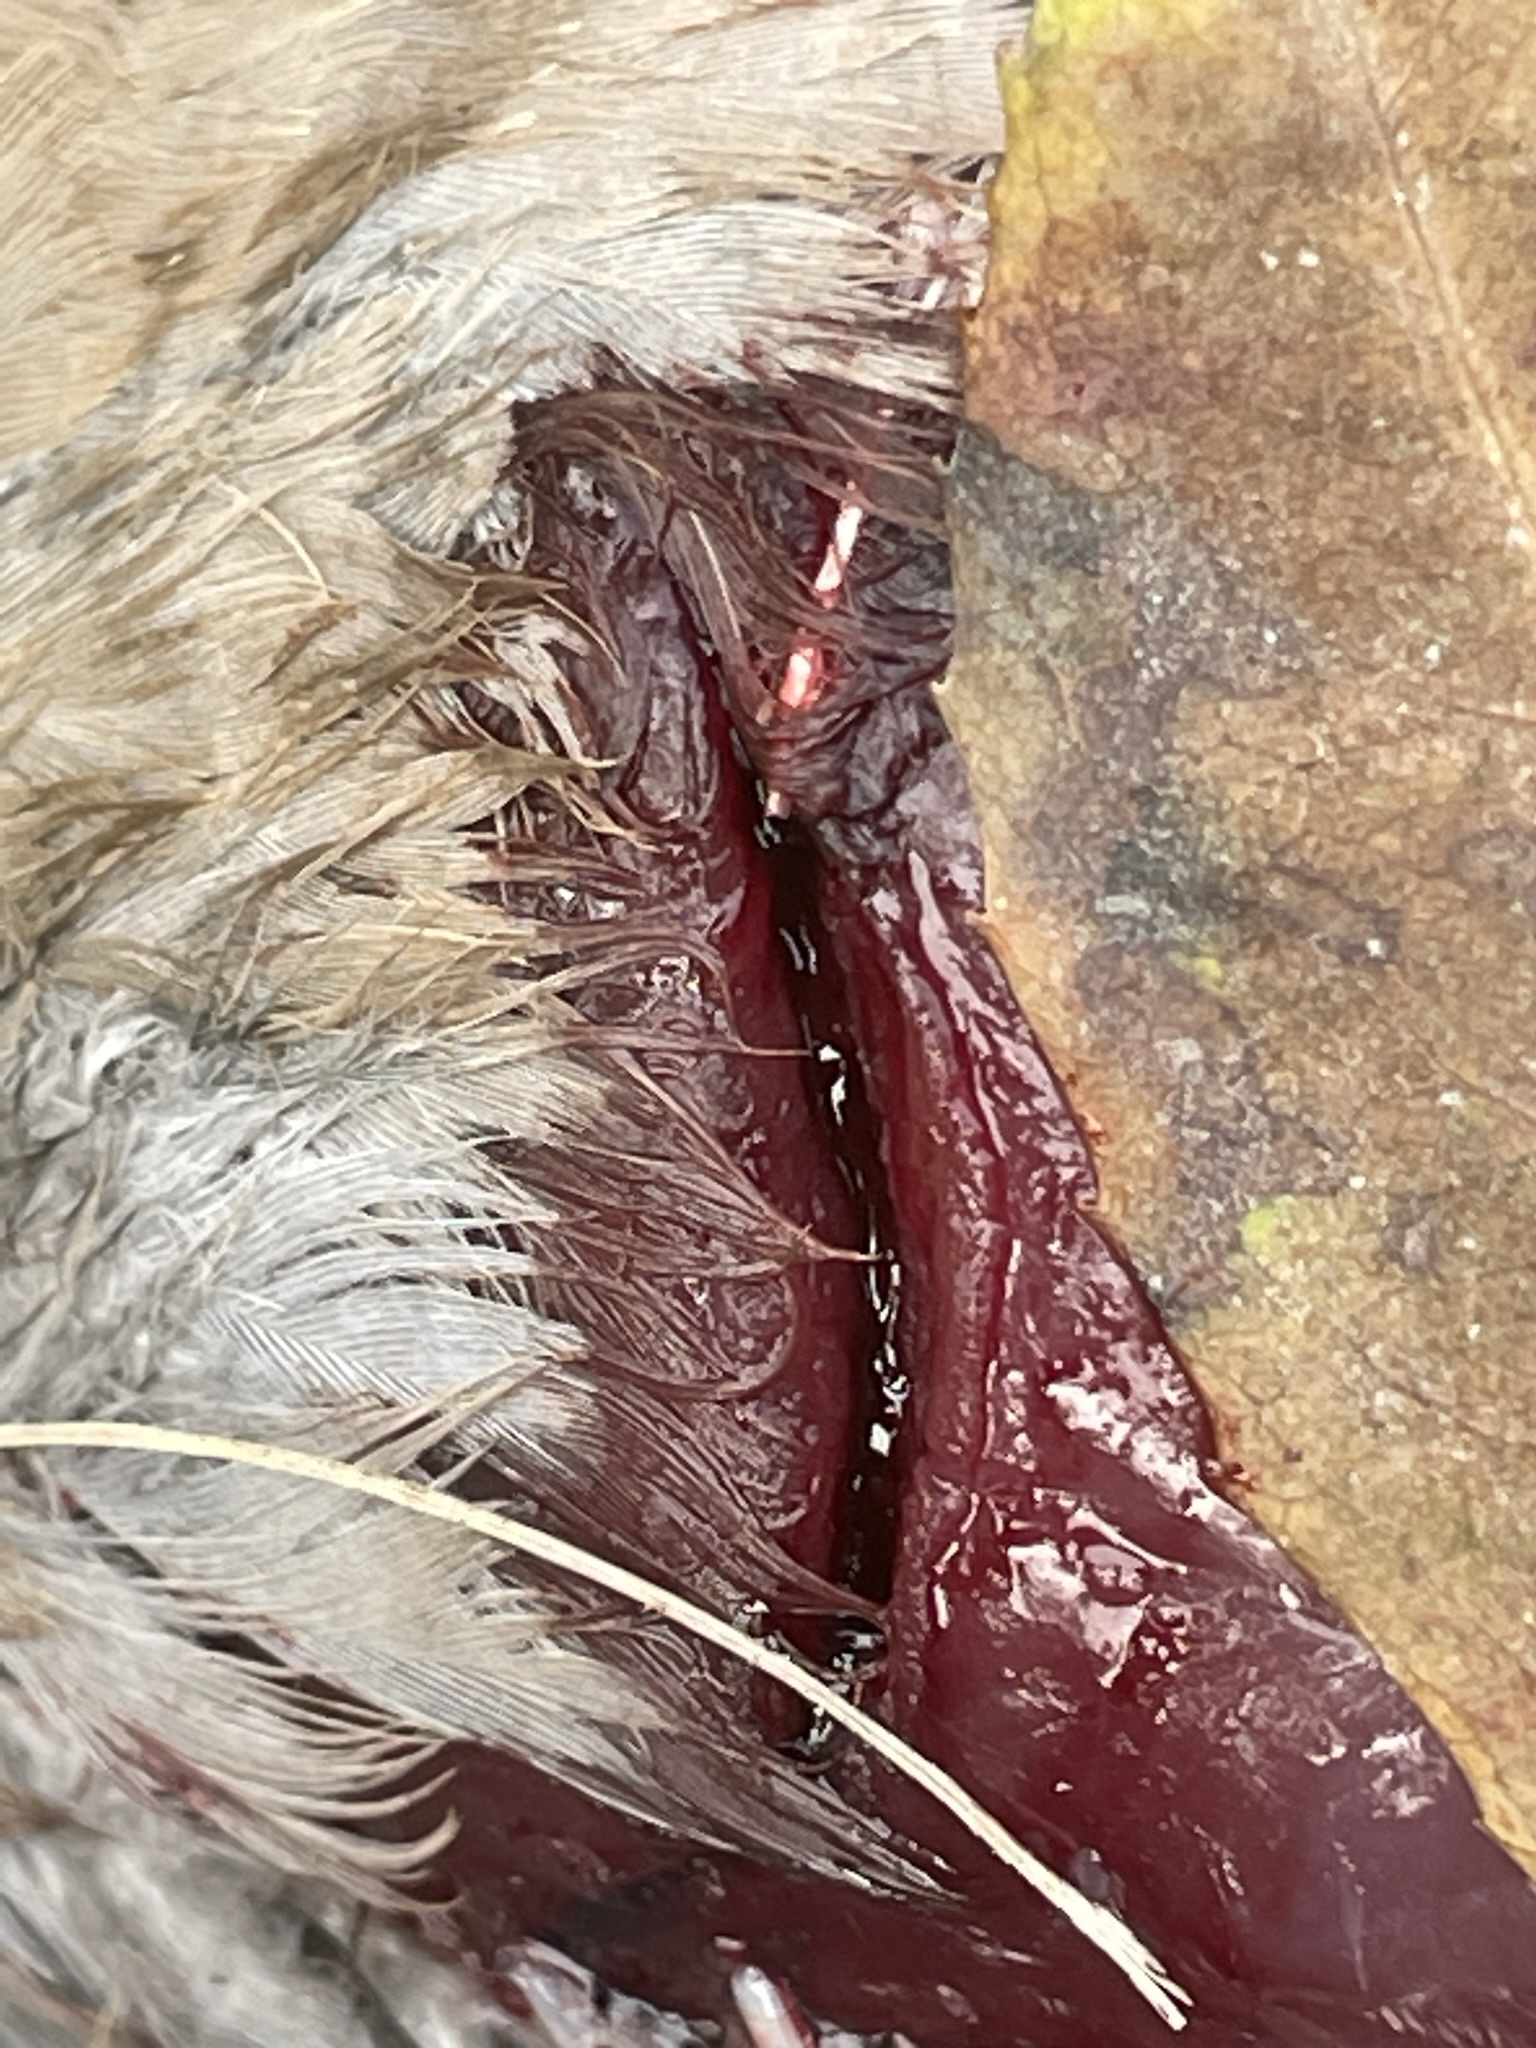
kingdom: Animalia
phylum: Chordata
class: Aves
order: Columbiformes
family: Columbidae
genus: Zenaida
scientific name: Zenaida meloda
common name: West peruvian dove
